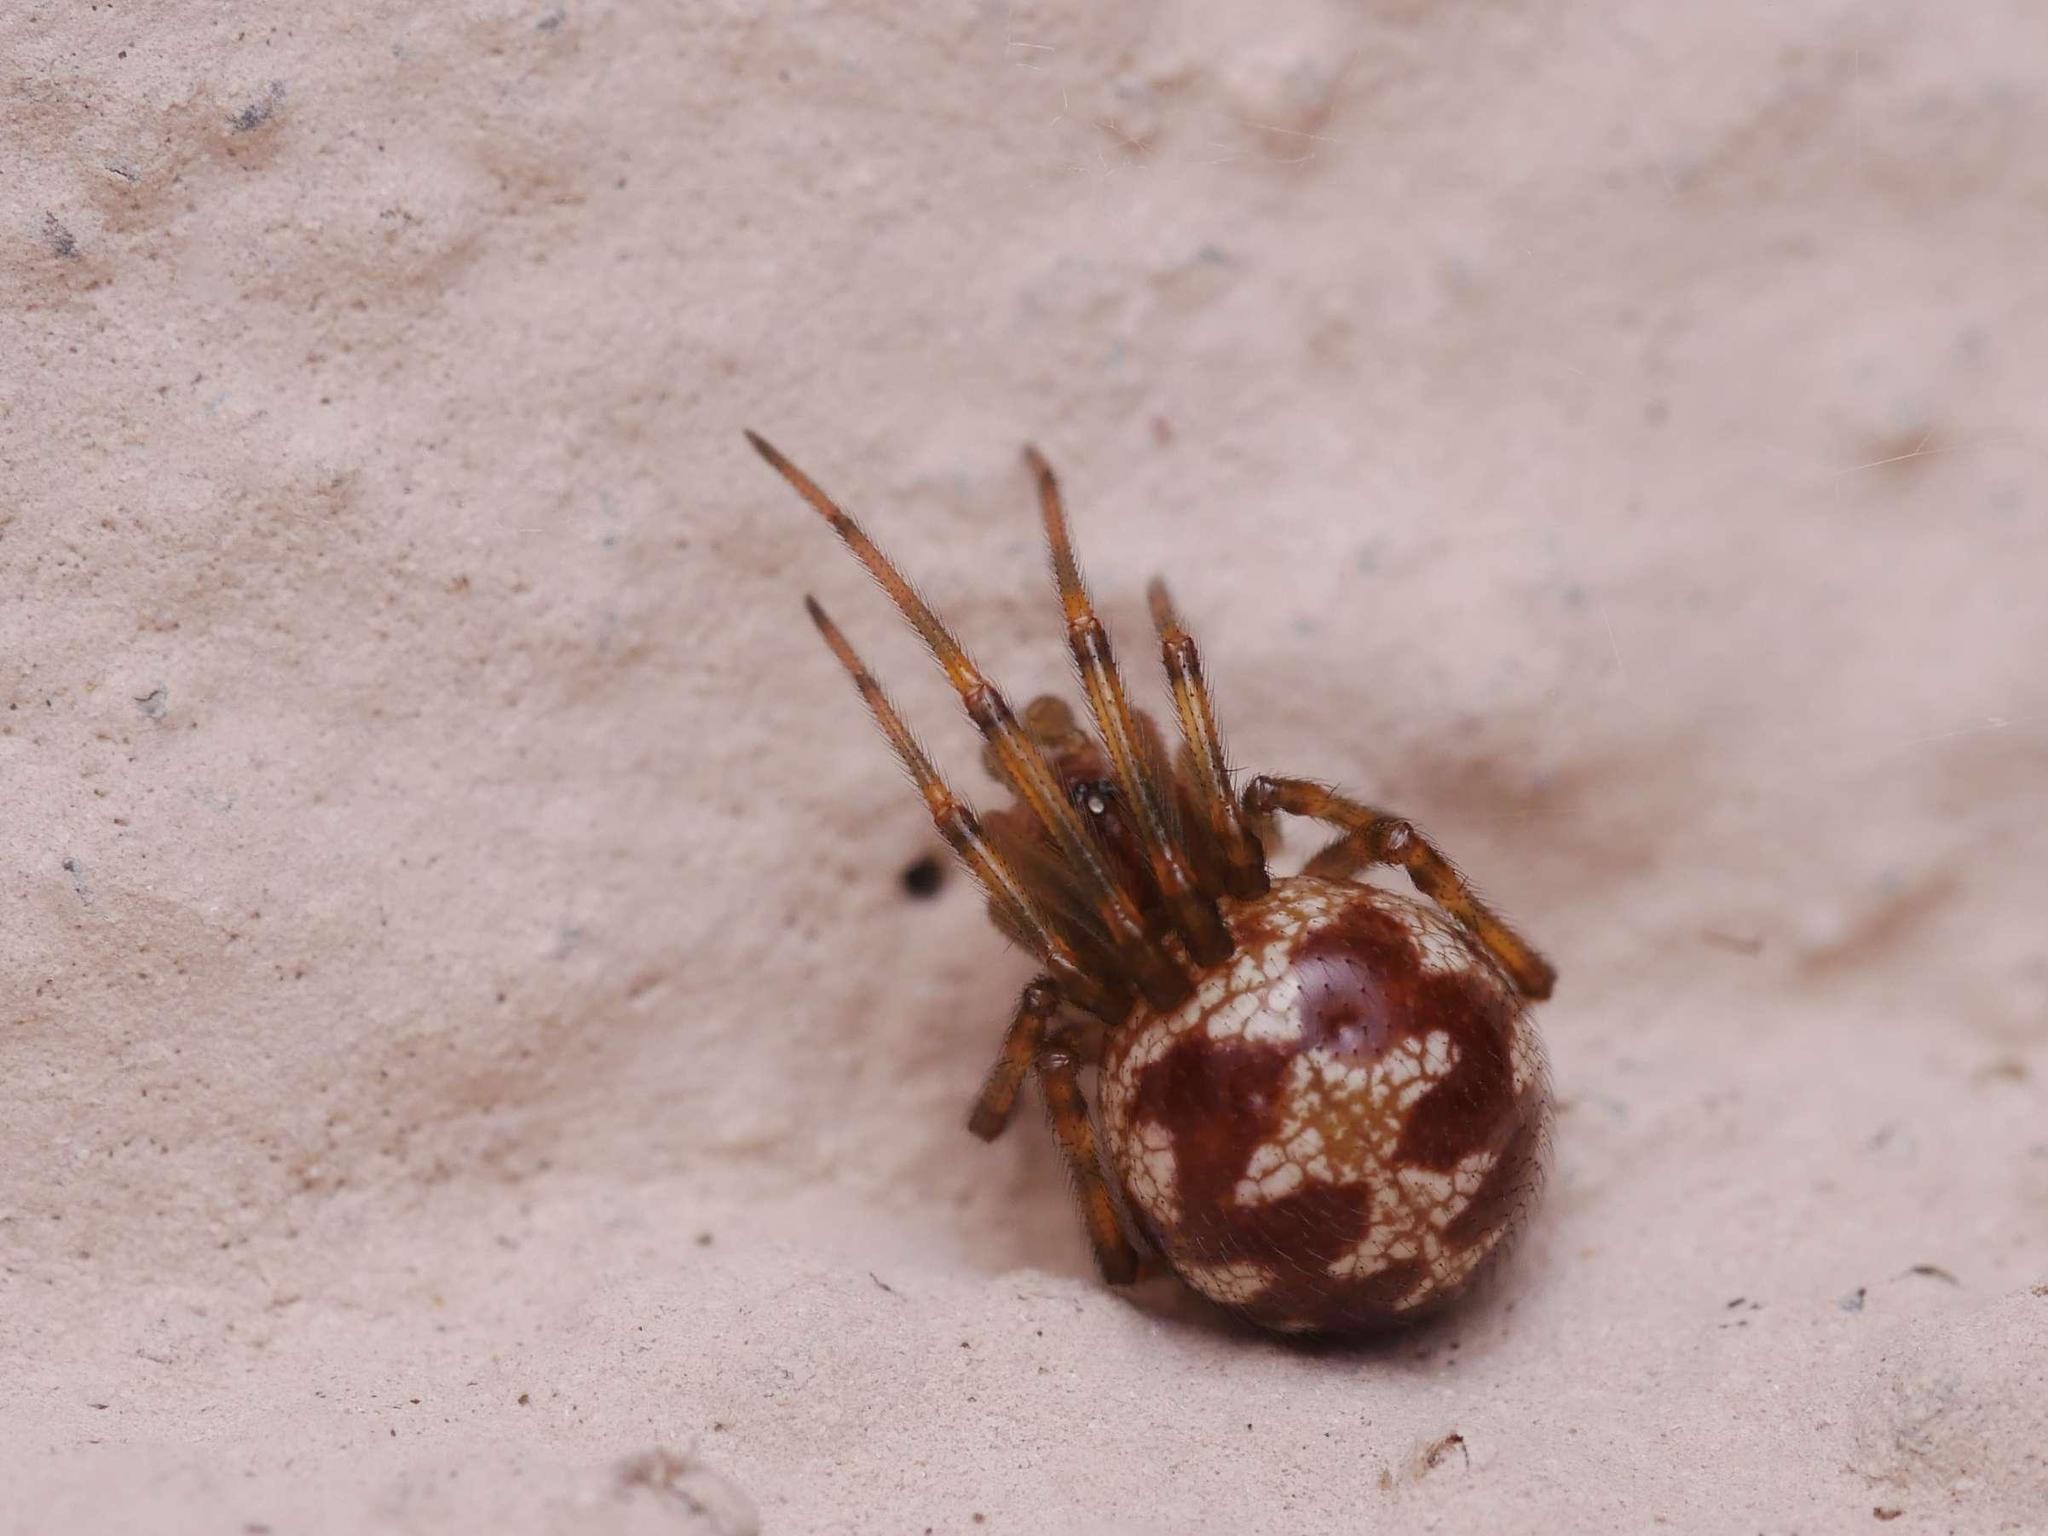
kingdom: Animalia
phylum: Arthropoda
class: Arachnida
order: Araneae
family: Theridiidae
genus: Steatoda
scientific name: Steatoda triangulosa
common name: Triangulate bud spider
